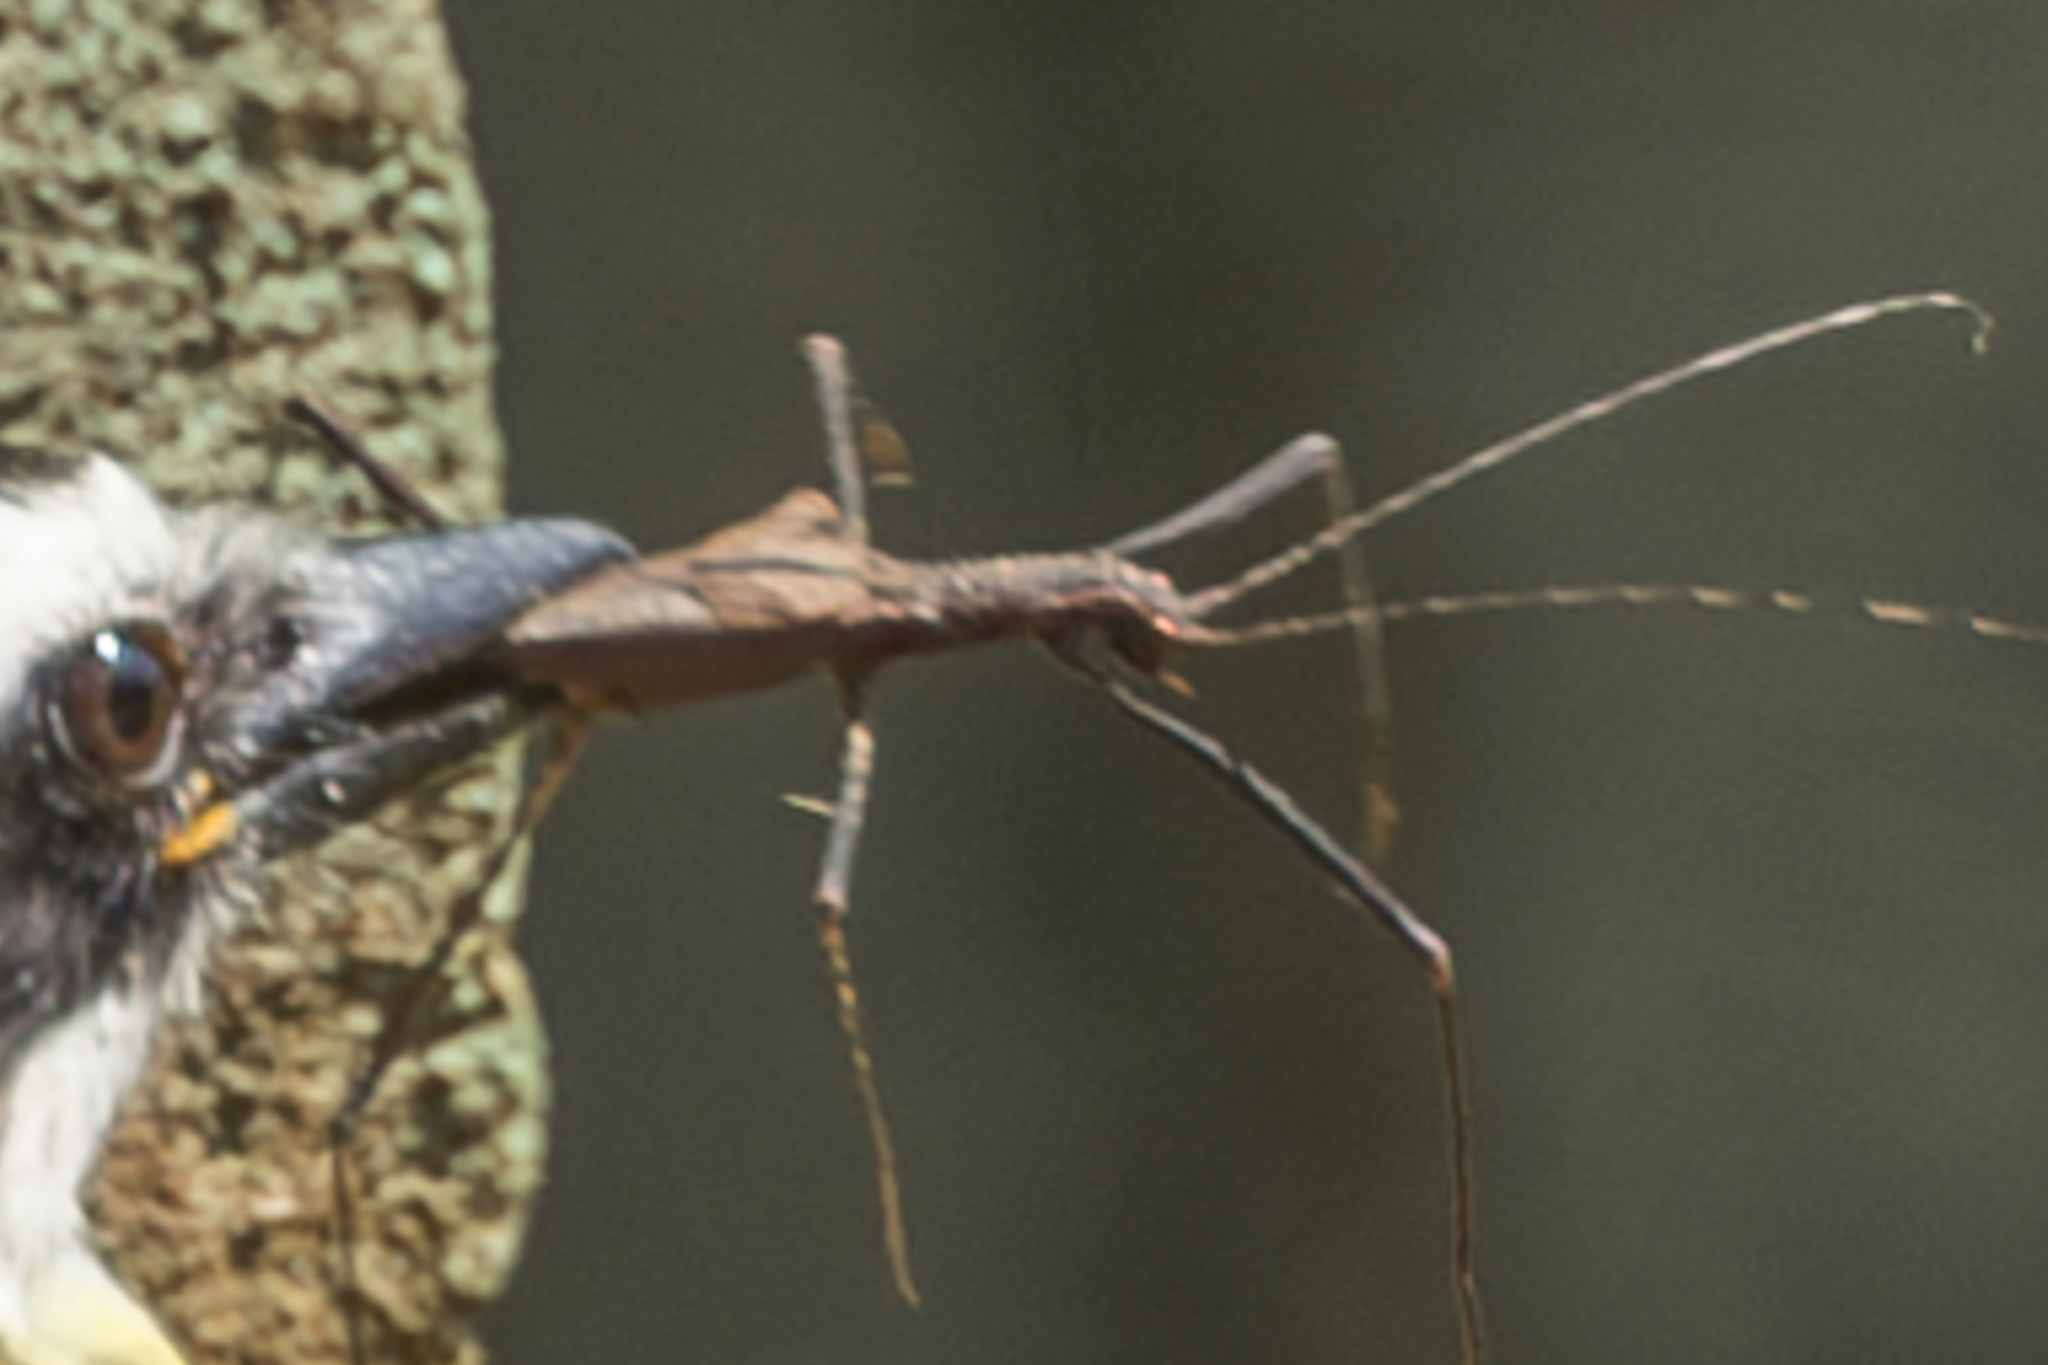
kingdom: Animalia
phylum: Arthropoda
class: Insecta
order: Phasmida
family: Pseudophasmatidae
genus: Pseudophasma
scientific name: Pseudophasma unicolor
